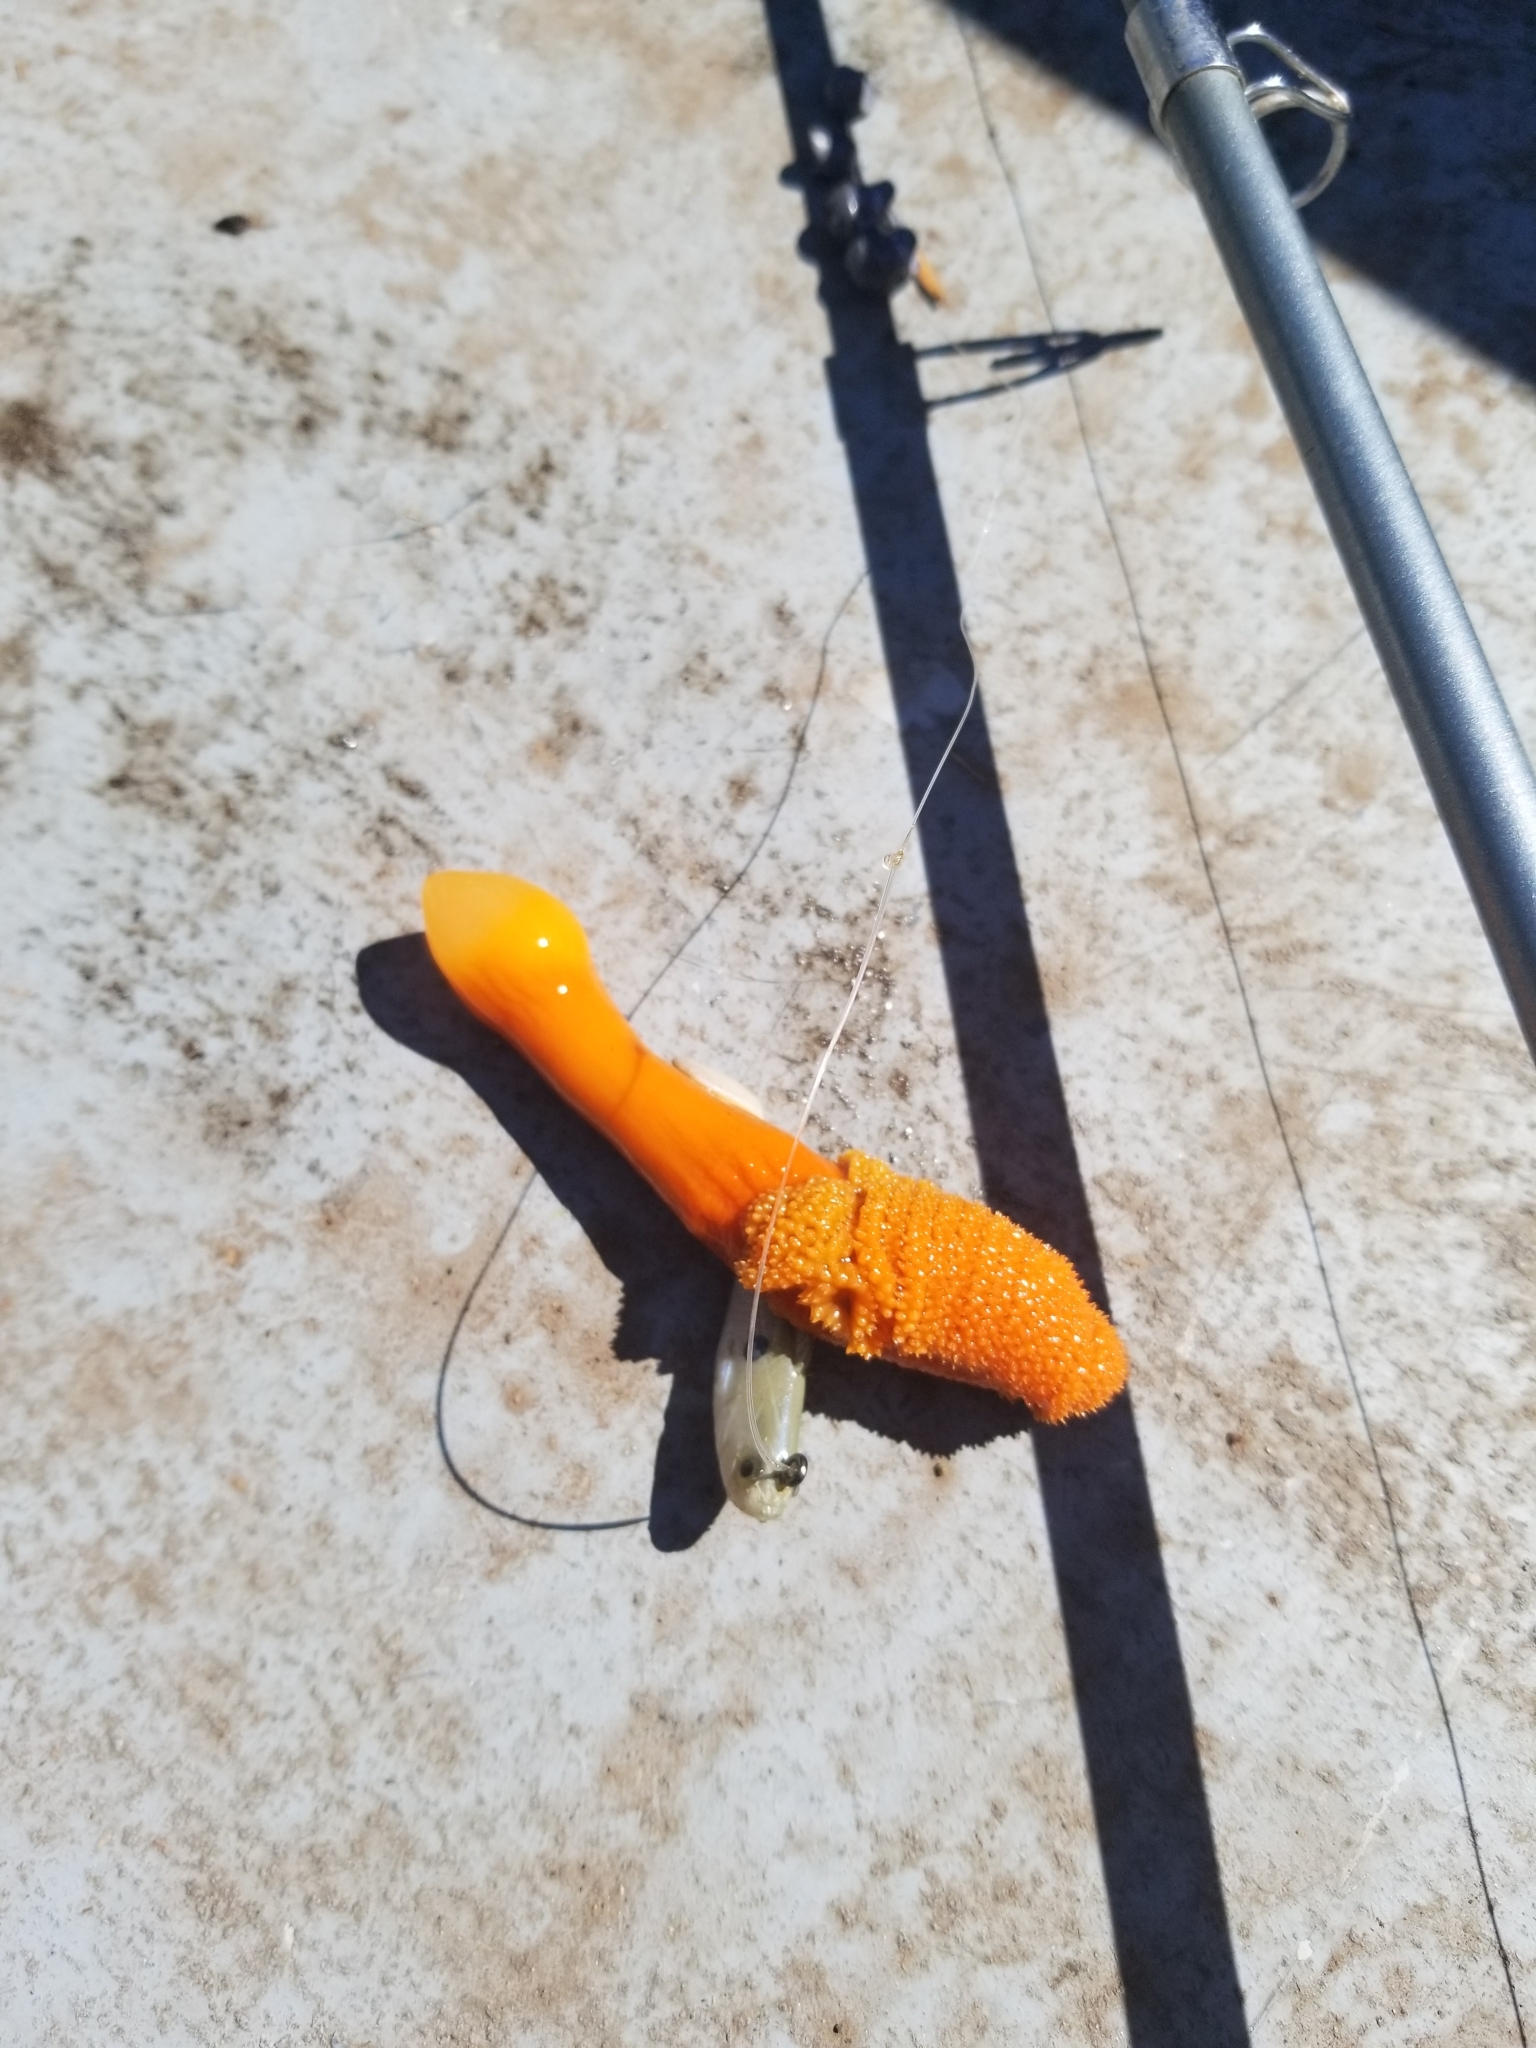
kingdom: Animalia
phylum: Cnidaria
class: Anthozoa
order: Scleralcyonacea
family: Pennatulidae
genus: Ptilosarcus
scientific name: Ptilosarcus gurneyi
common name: Gurney's sea pen
